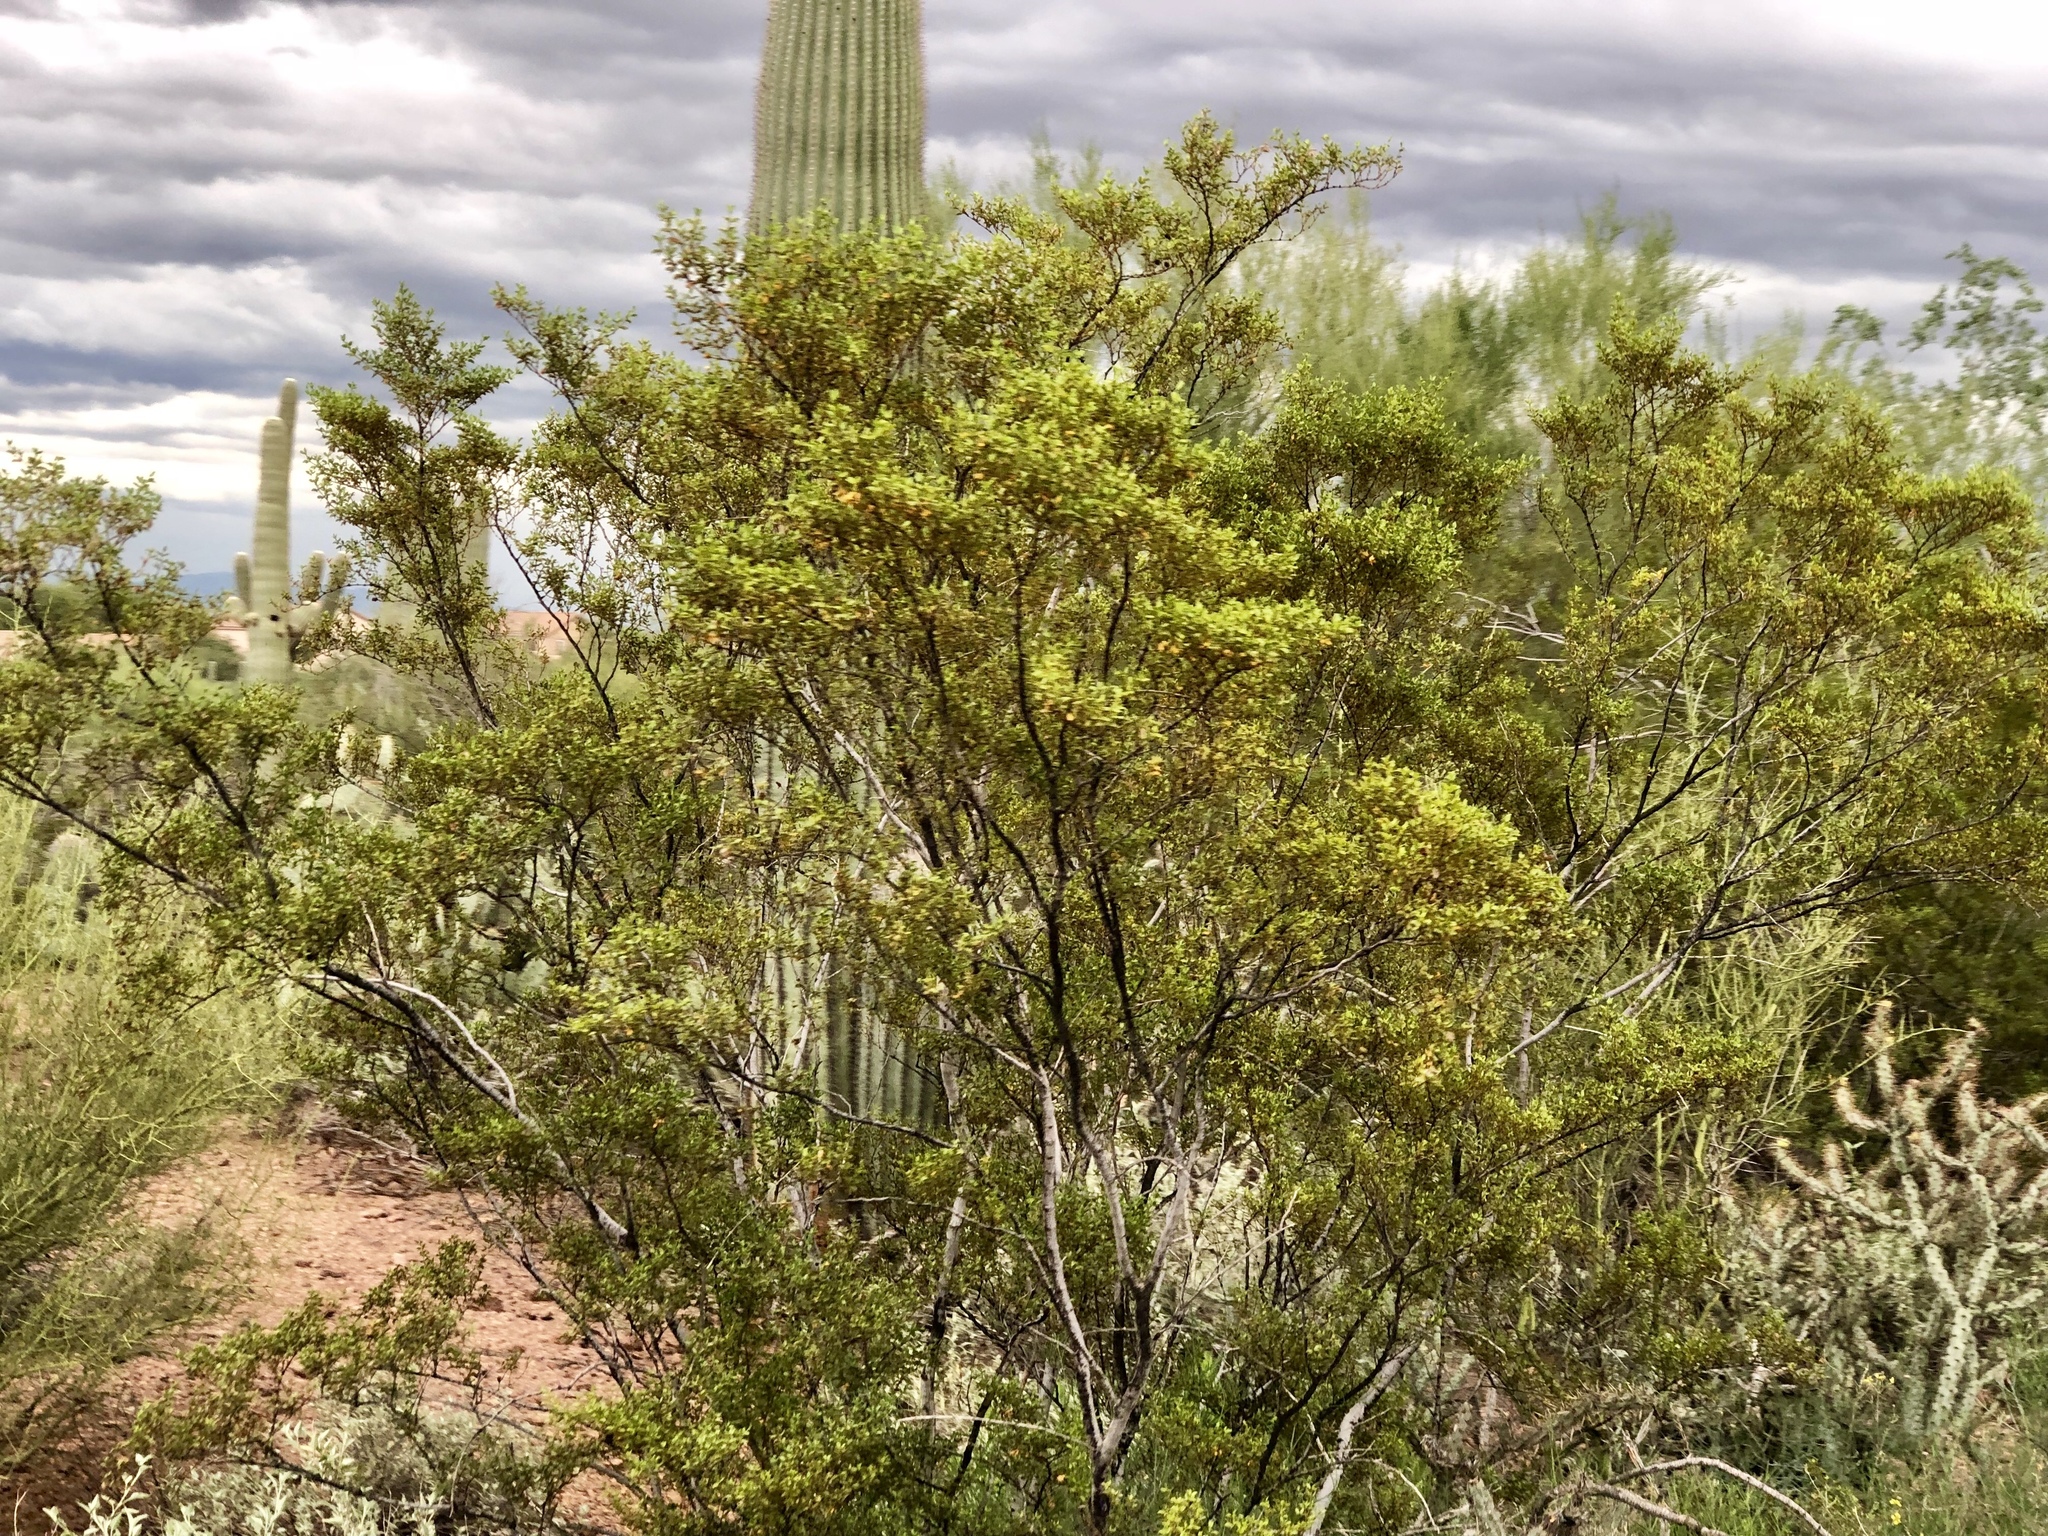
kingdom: Plantae
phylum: Tracheophyta
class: Magnoliopsida
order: Zygophyllales
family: Zygophyllaceae
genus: Larrea
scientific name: Larrea tridentata
